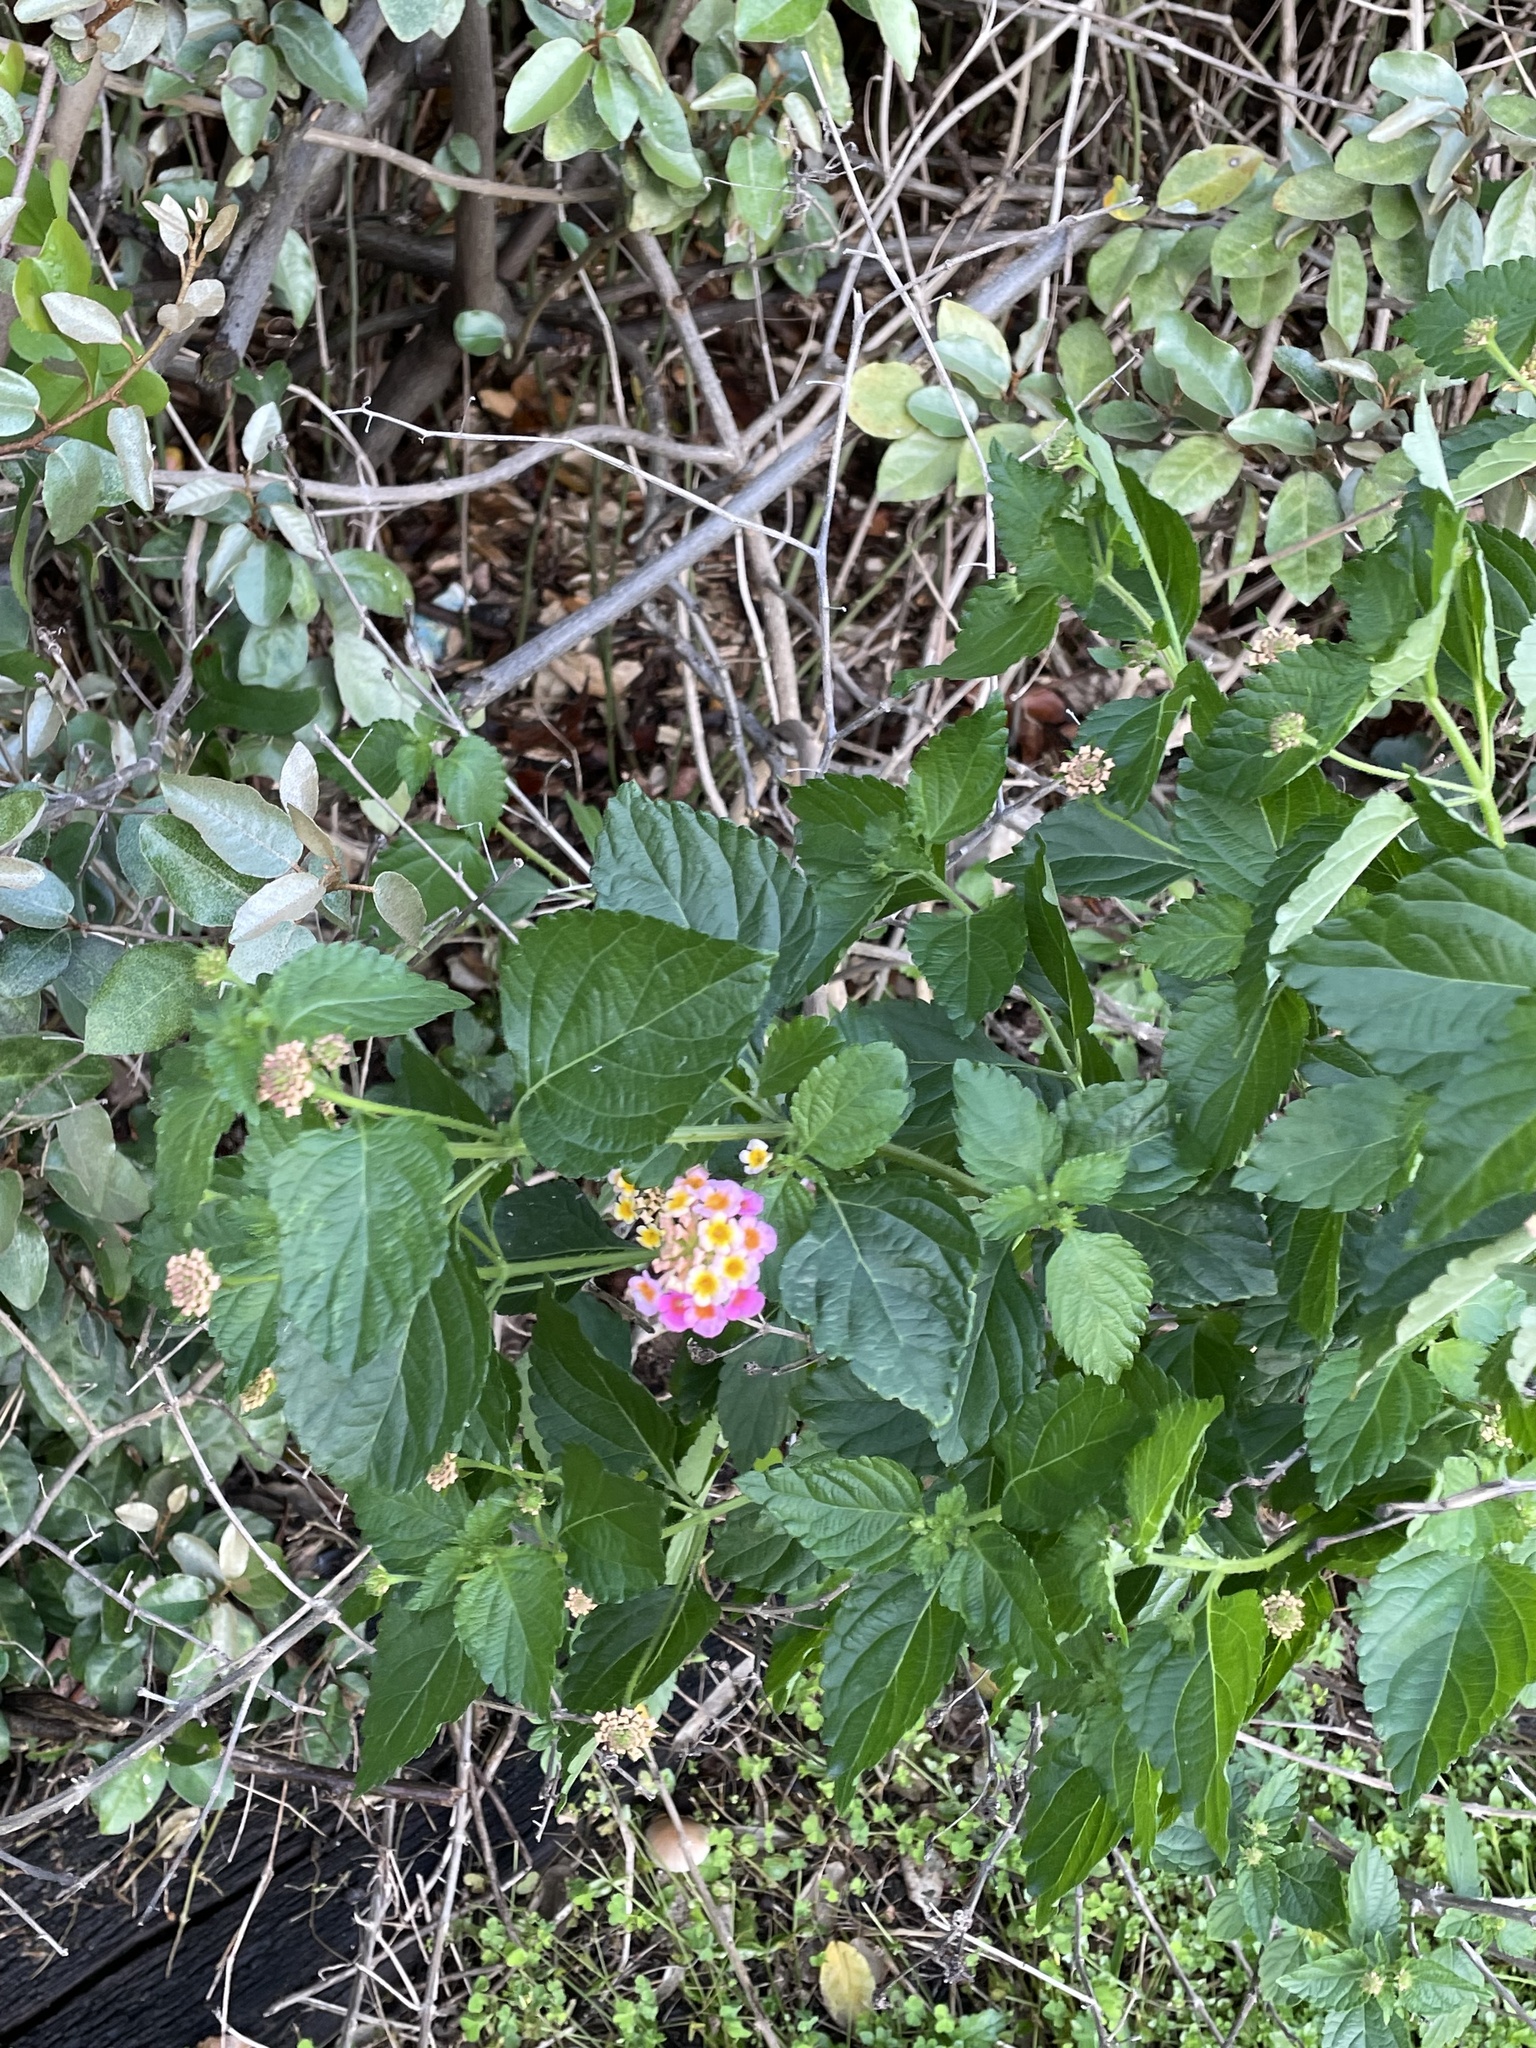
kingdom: Plantae
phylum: Tracheophyta
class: Magnoliopsida
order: Lamiales
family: Verbenaceae
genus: Lantana
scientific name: Lantana strigocamara
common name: Lantana
